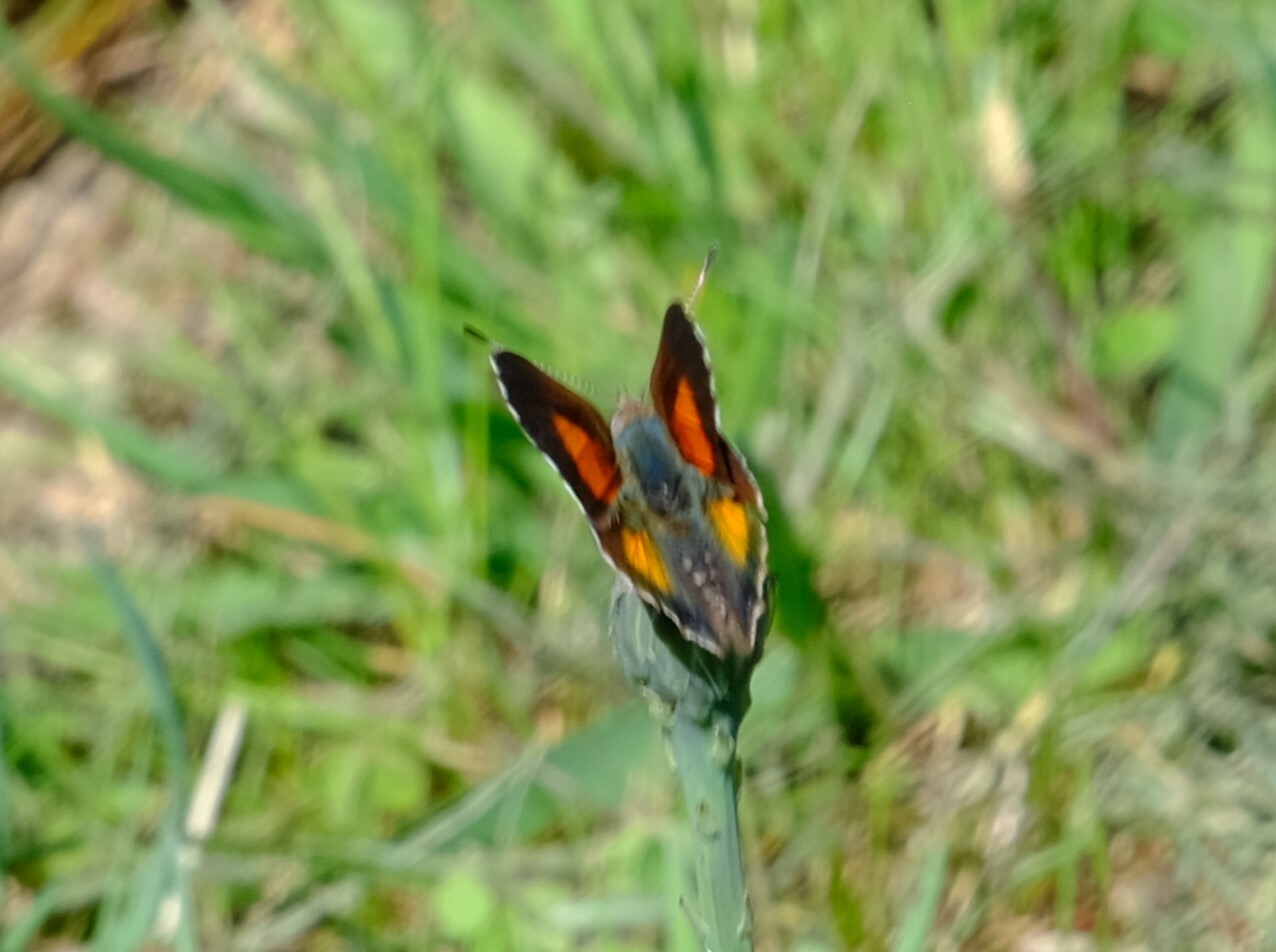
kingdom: Animalia
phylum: Arthropoda
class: Insecta
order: Lepidoptera
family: Lycaenidae
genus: Paralucia
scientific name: Paralucia aurifer
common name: Bright copper
